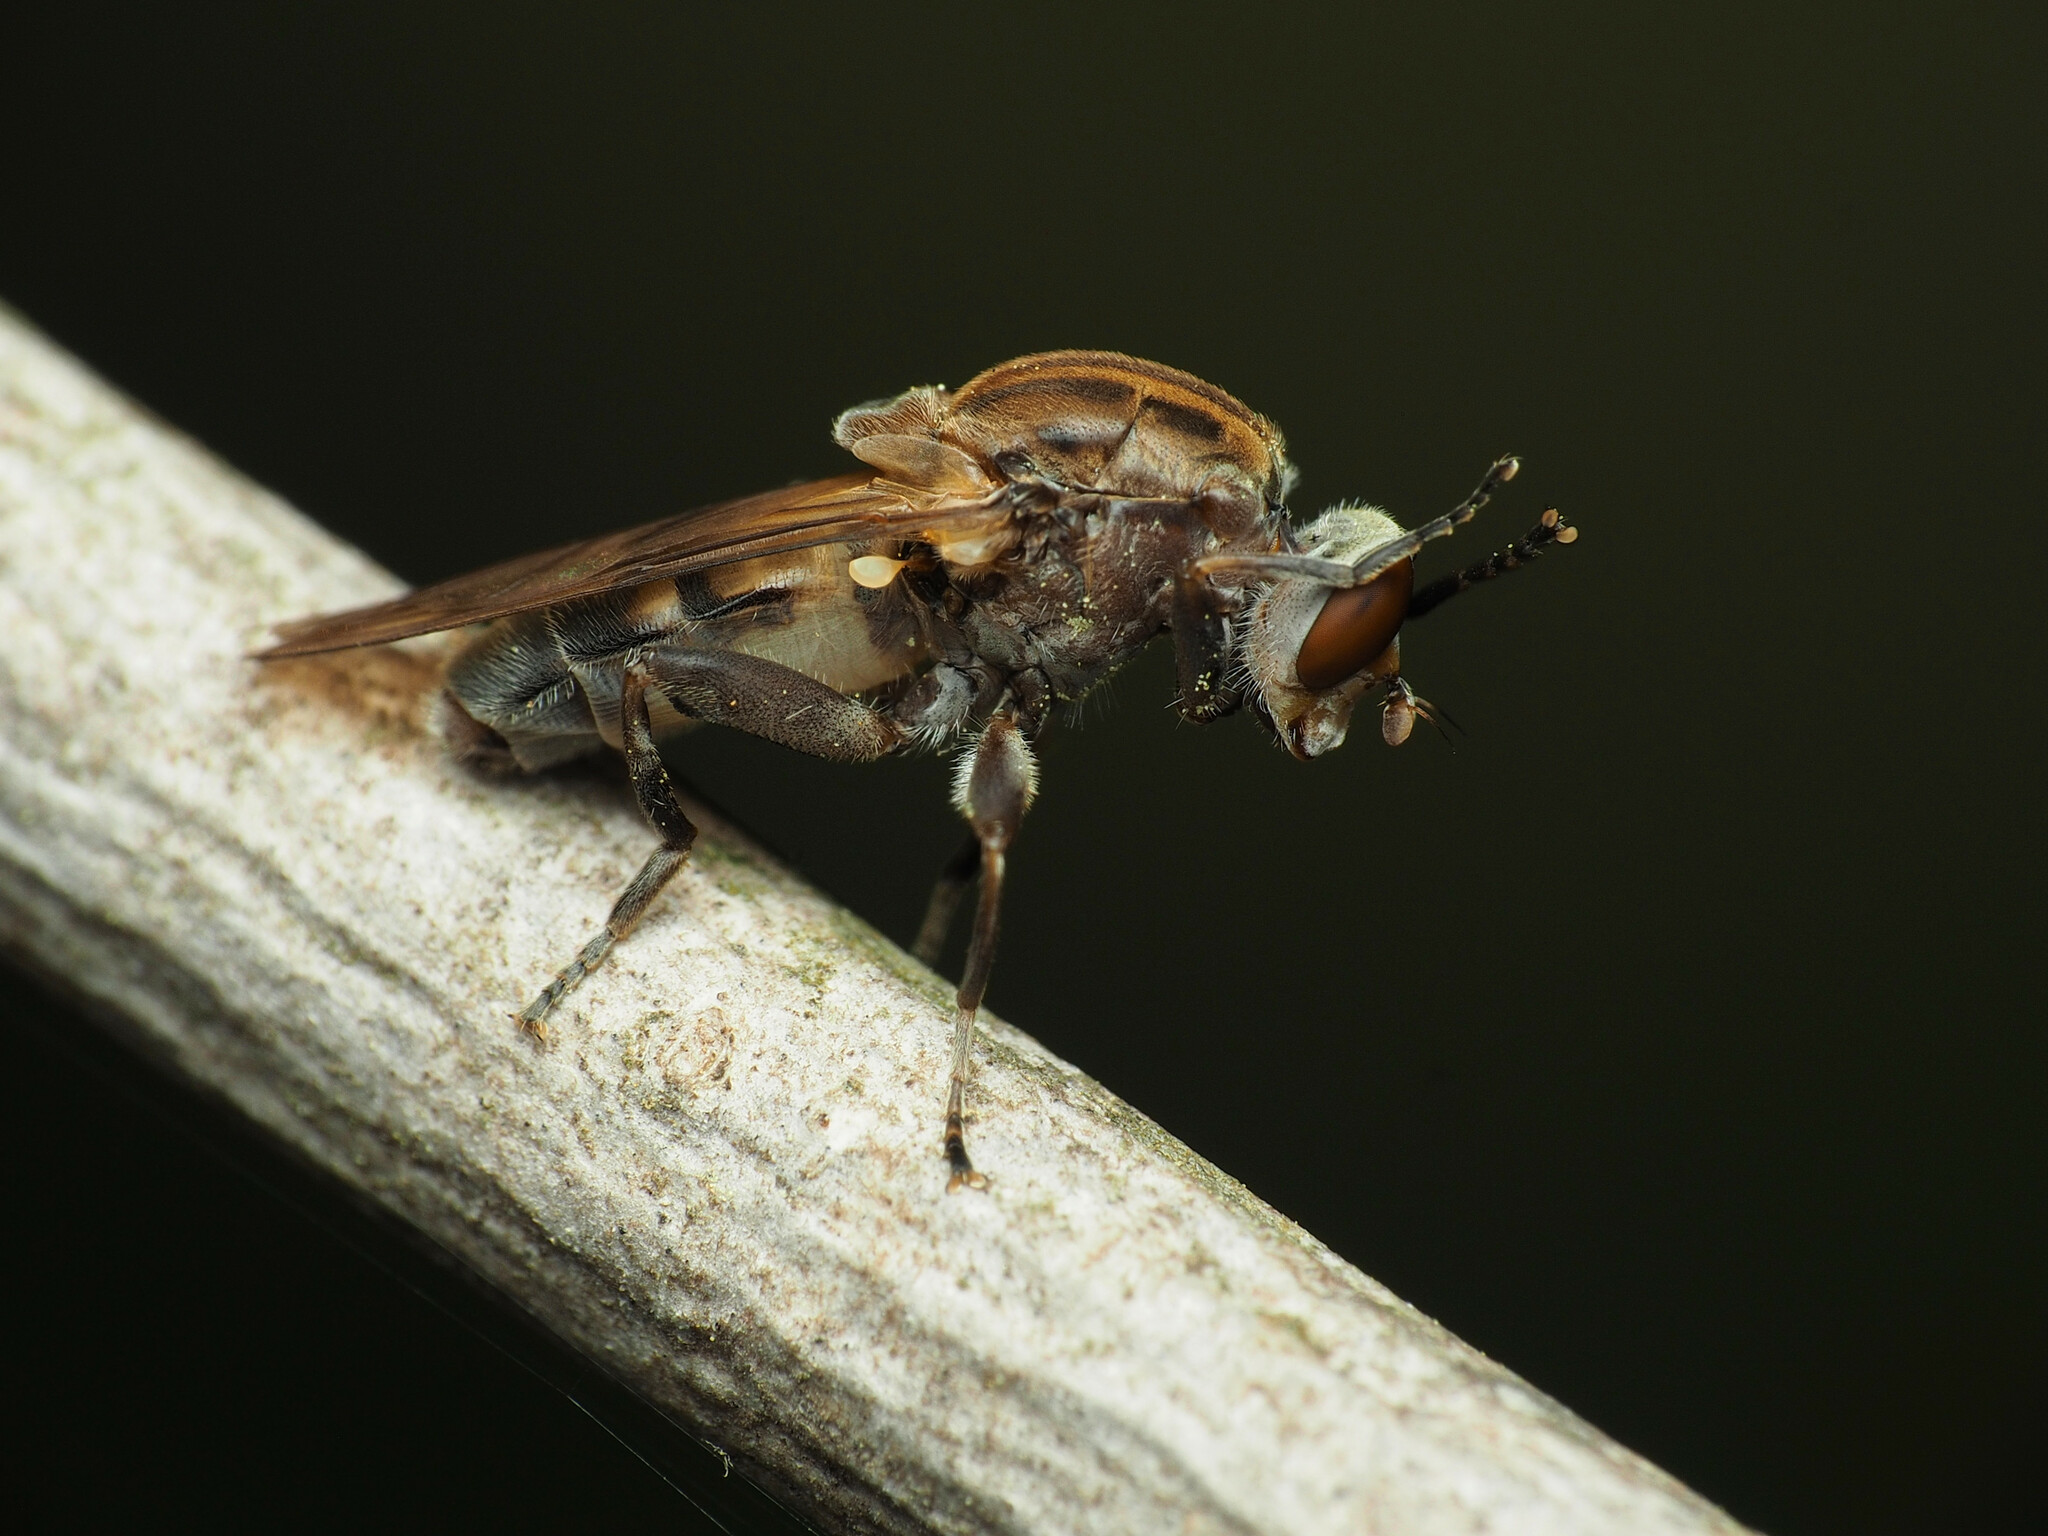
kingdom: Animalia
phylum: Arthropoda
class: Insecta
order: Diptera
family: Syrphidae
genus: Brachyopa
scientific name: Brachyopa vacua
